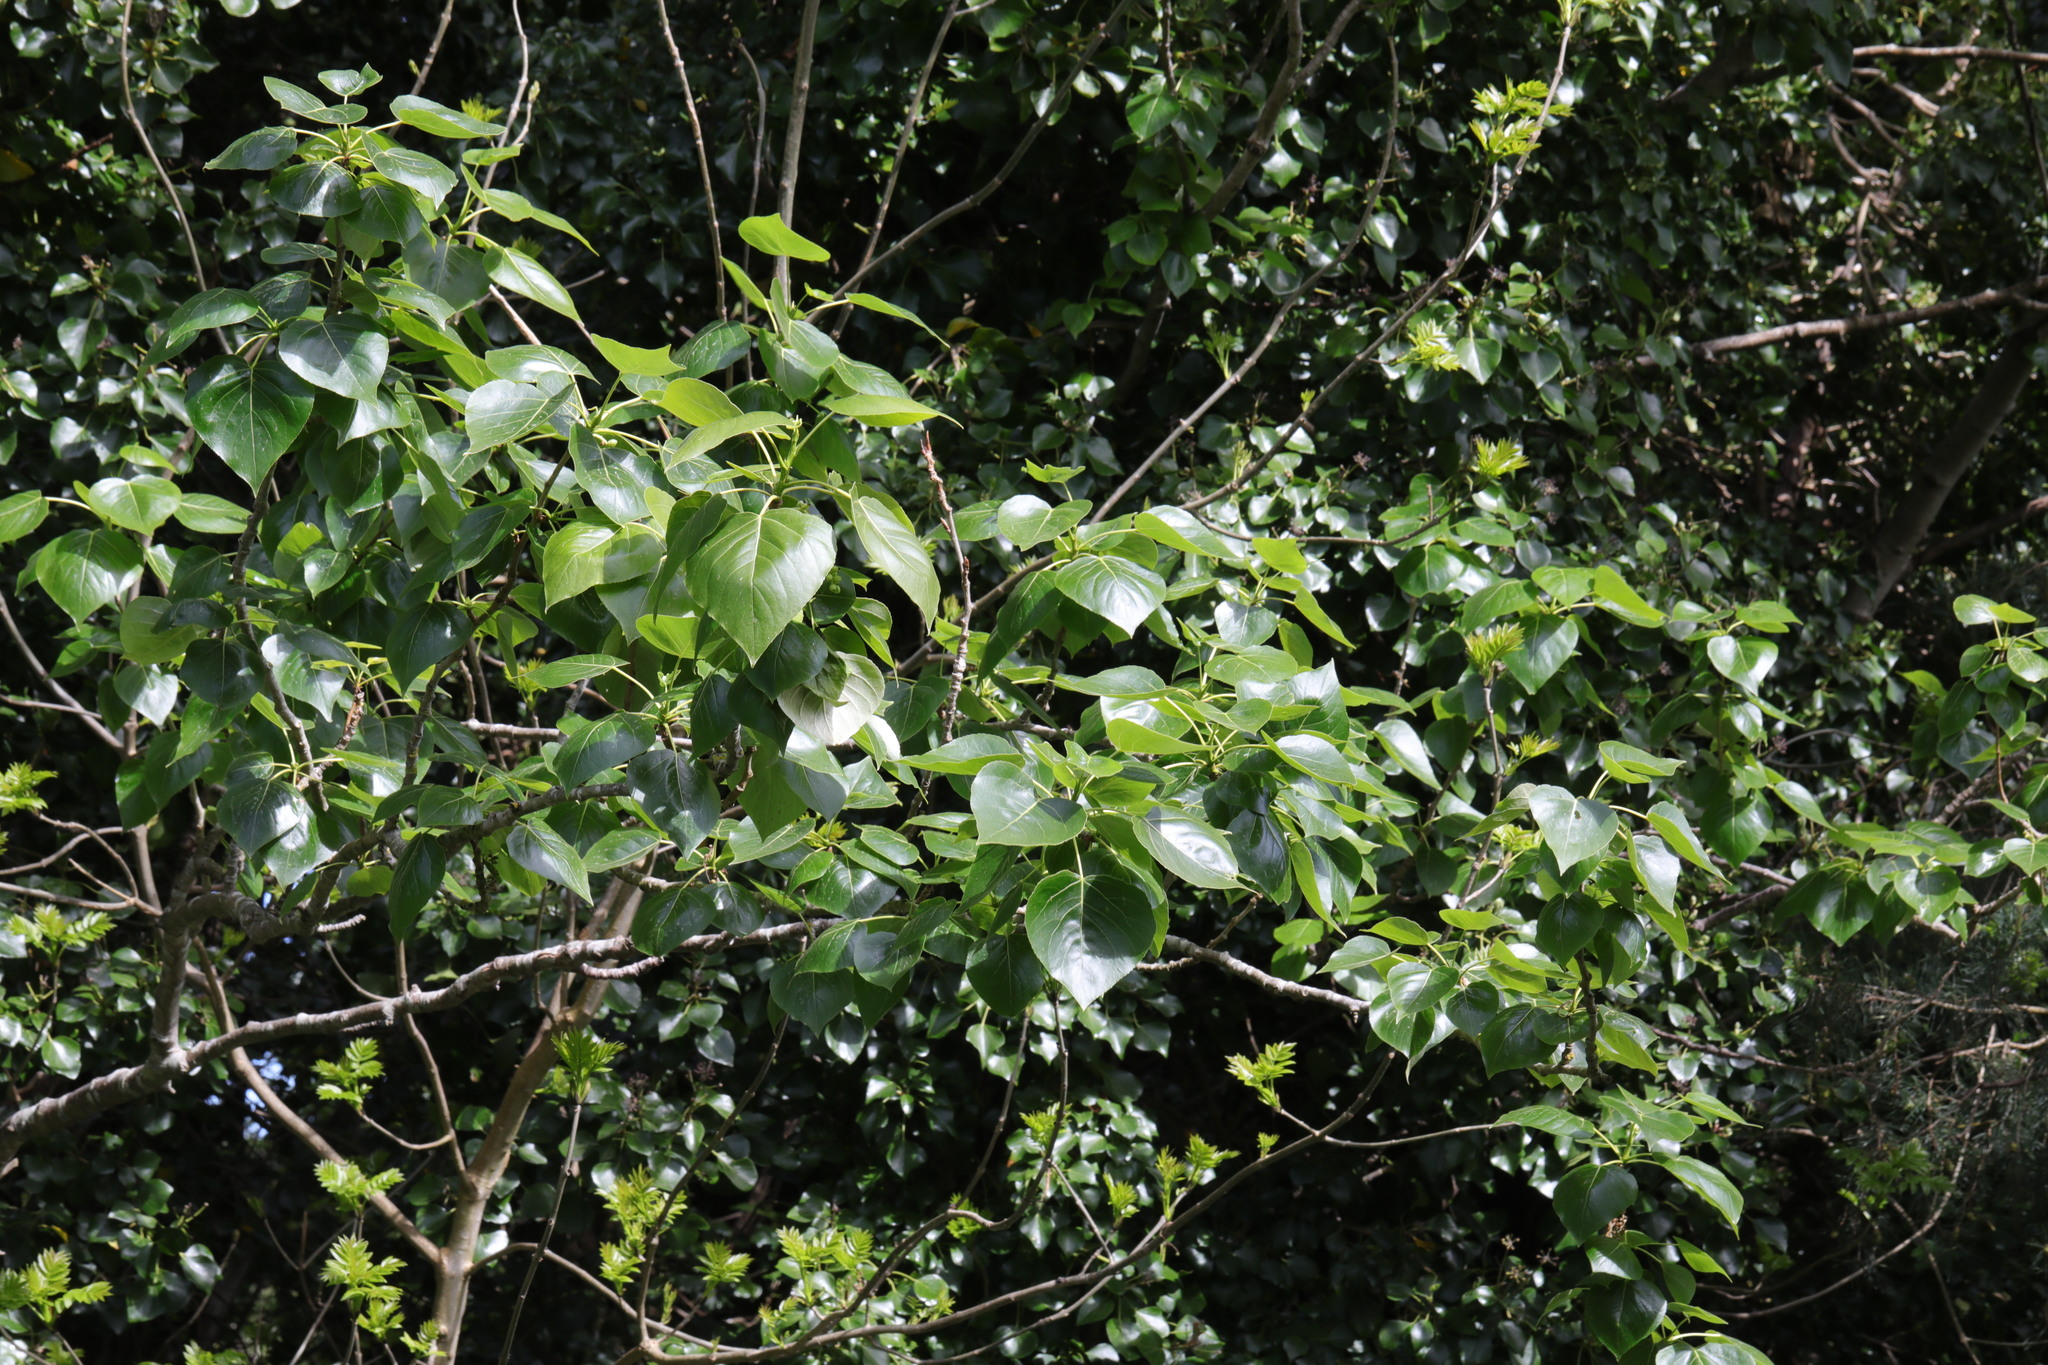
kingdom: Plantae
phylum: Tracheophyta
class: Magnoliopsida
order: Malpighiales
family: Salicaceae
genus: Populus
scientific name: Populus hastata
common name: Black cottonwood
